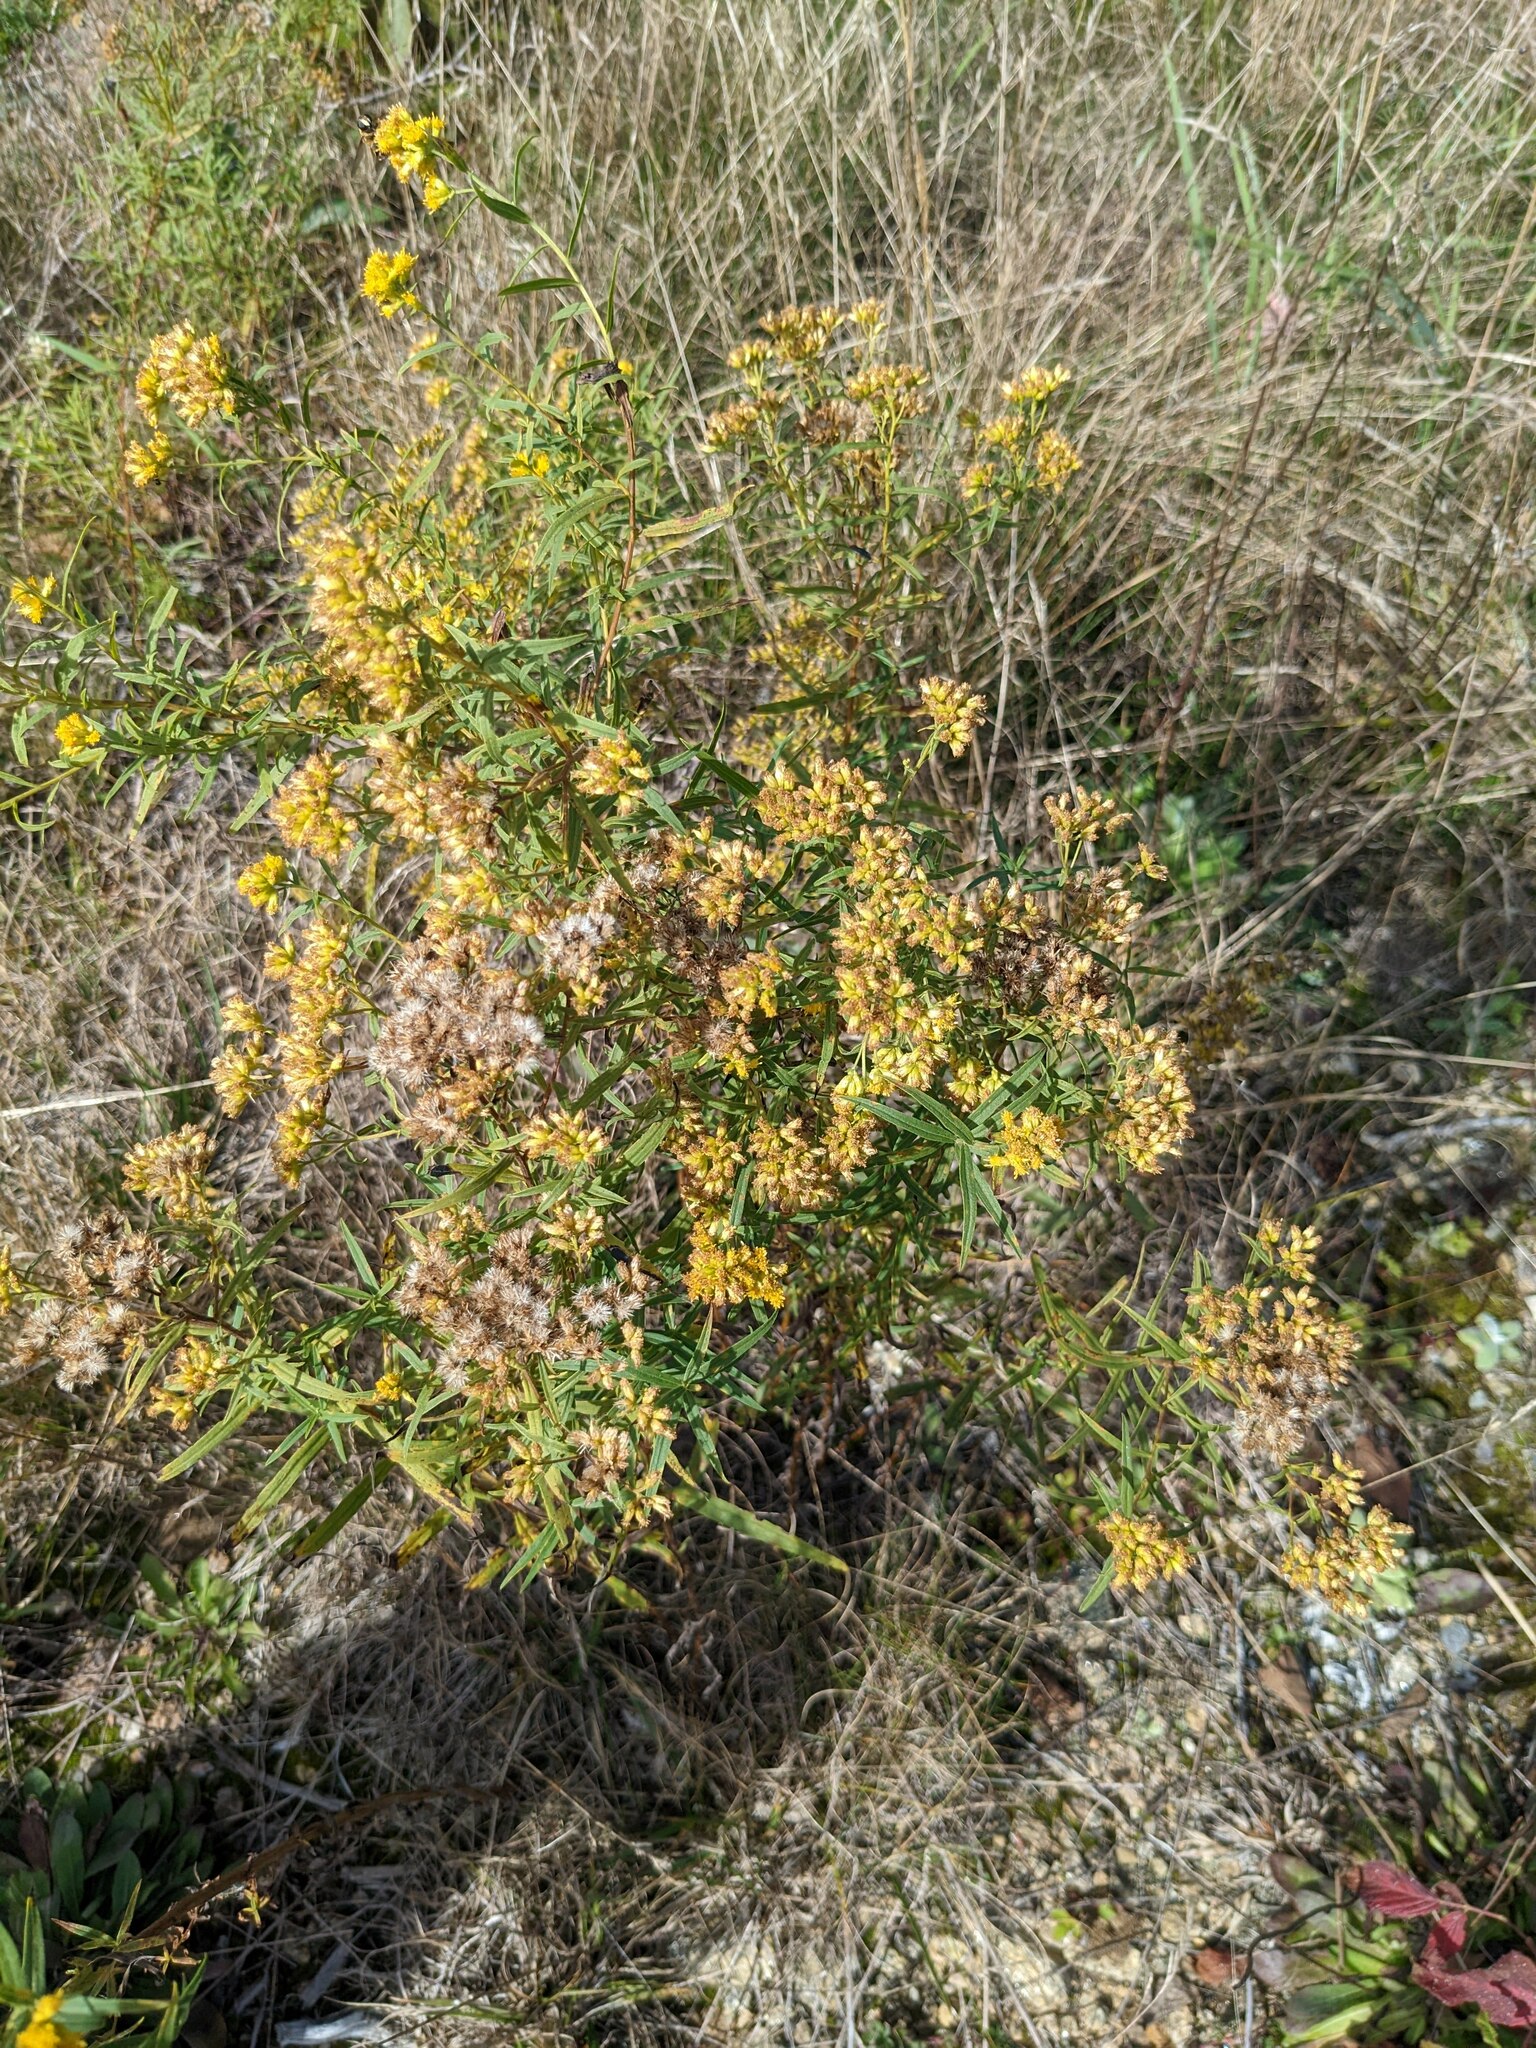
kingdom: Plantae
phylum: Tracheophyta
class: Magnoliopsida
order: Asterales
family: Asteraceae
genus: Euthamia
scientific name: Euthamia graminifolia
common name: Common goldentop
